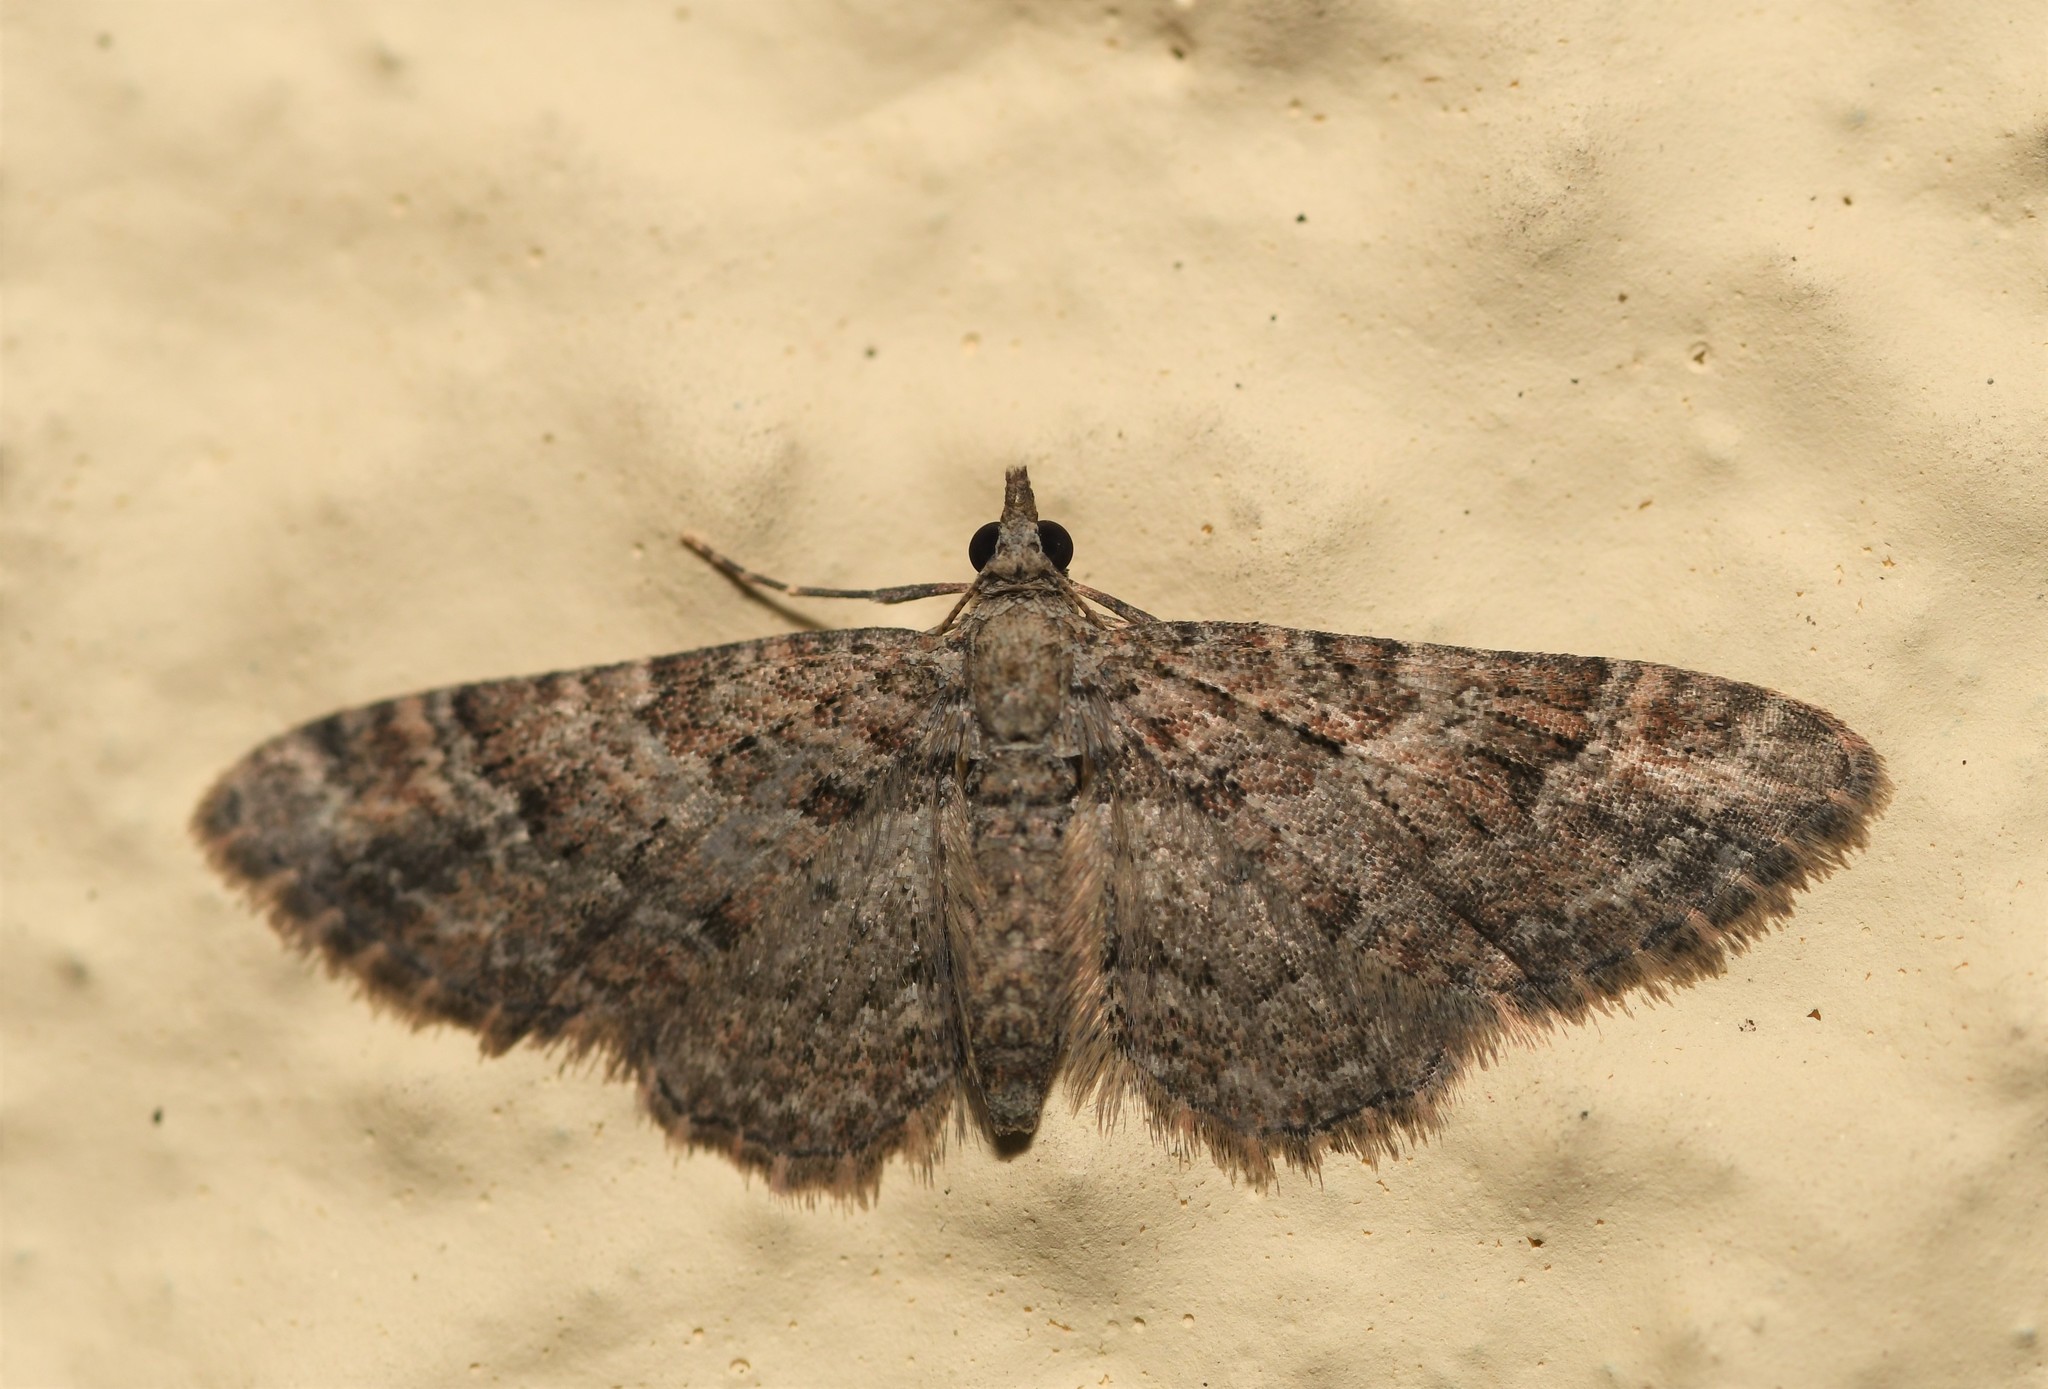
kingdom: Animalia
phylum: Arthropoda
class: Insecta
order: Lepidoptera
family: Geometridae
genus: Gymnoscelis
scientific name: Gymnoscelis rufifasciata
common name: Double-striped pug
